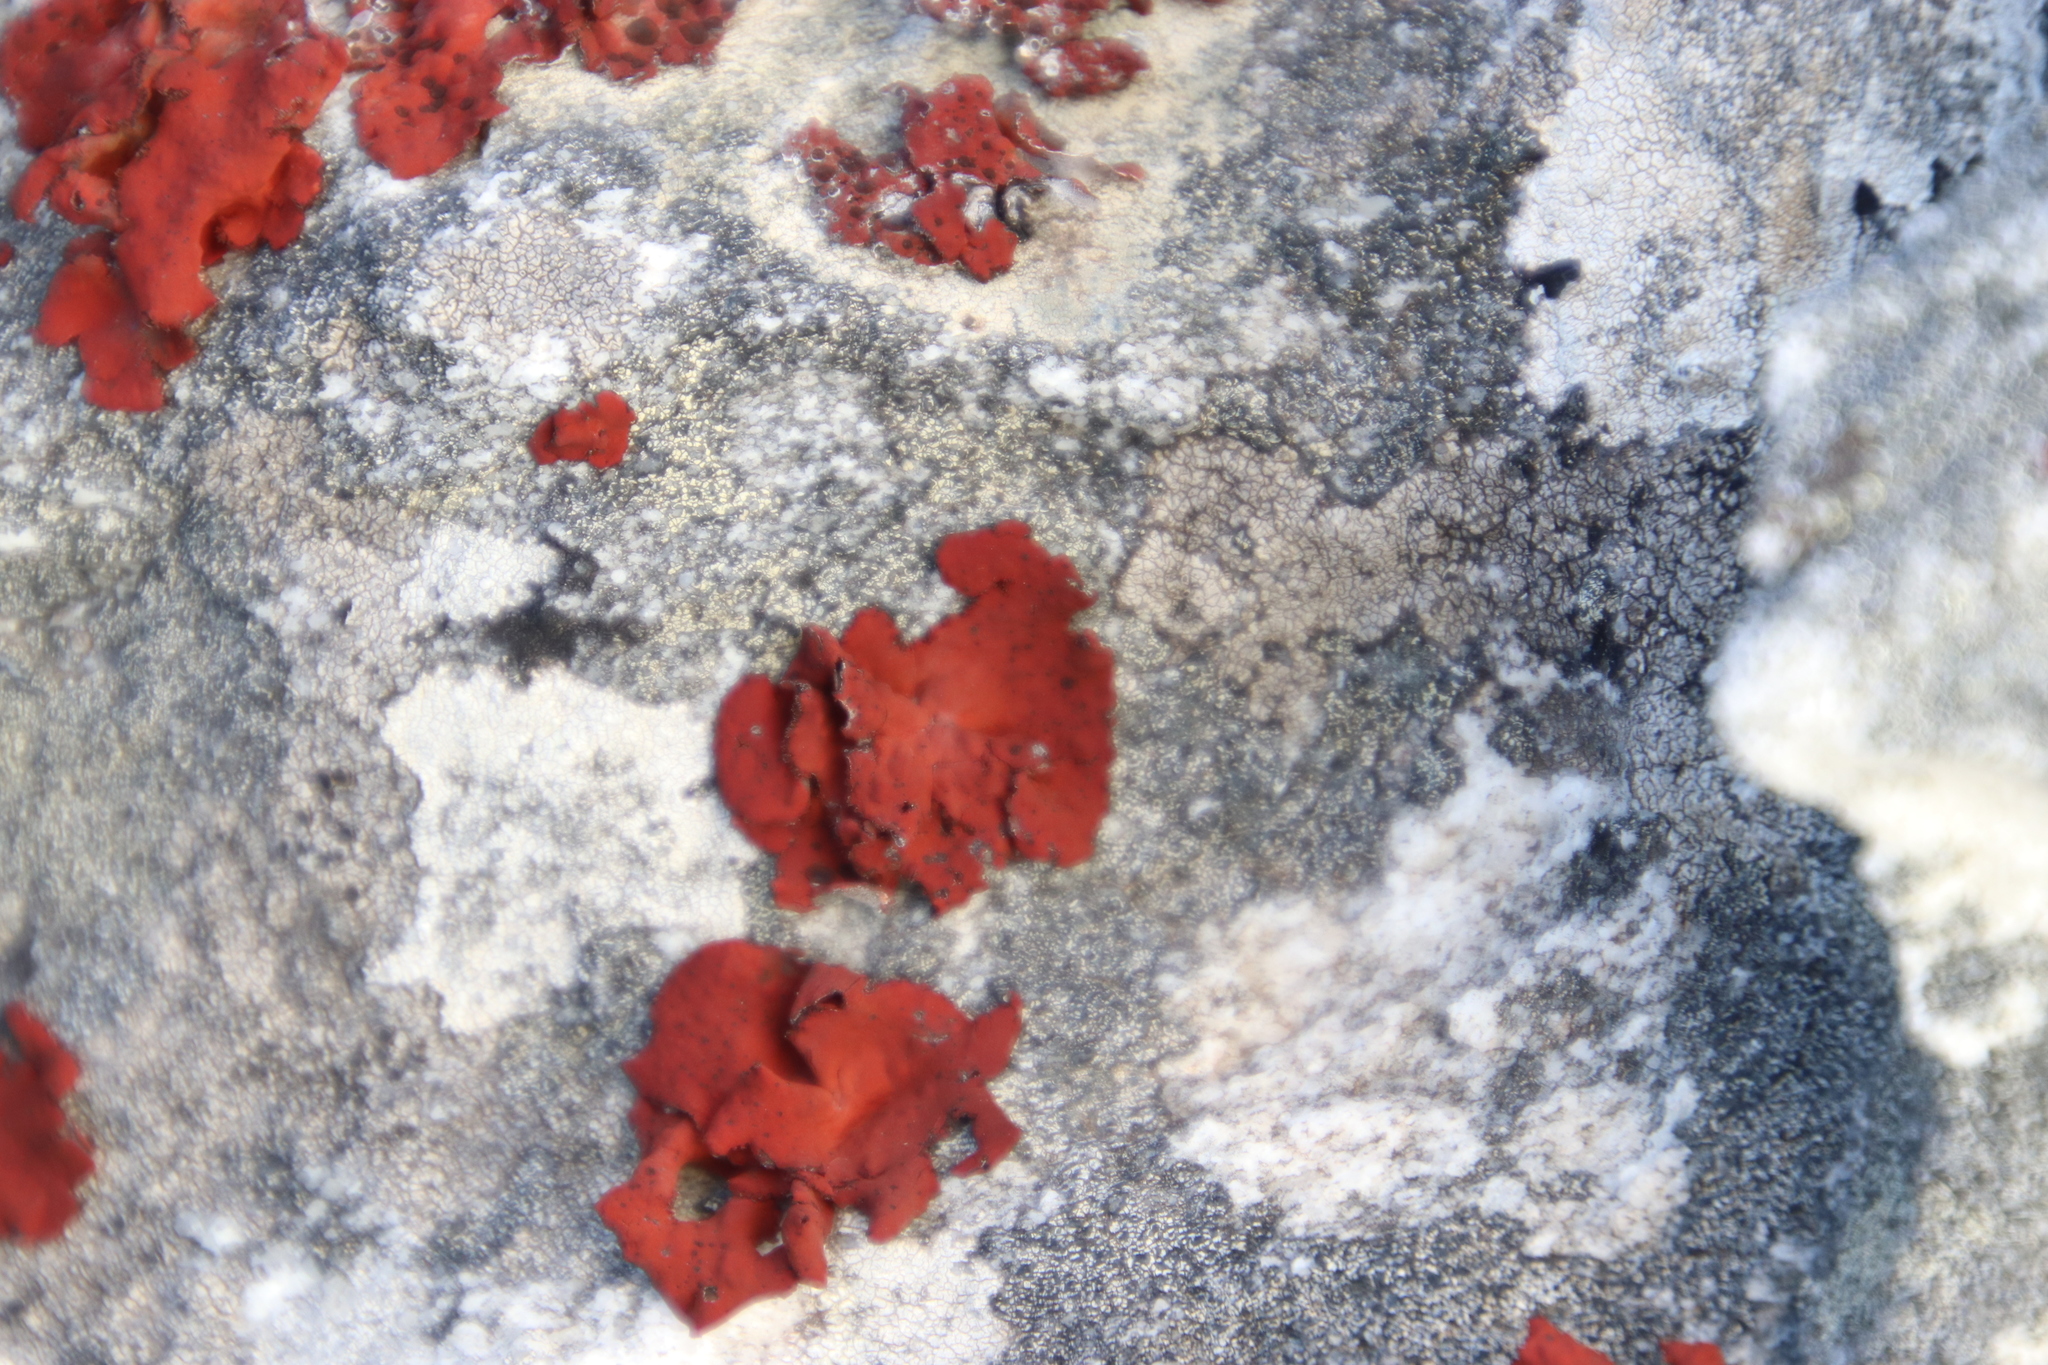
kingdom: Fungi
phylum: Ascomycota
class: Lecanoromycetes
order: Umbilicariales
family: Umbilicariaceae
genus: Lasallia
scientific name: Lasallia rubiginosa
